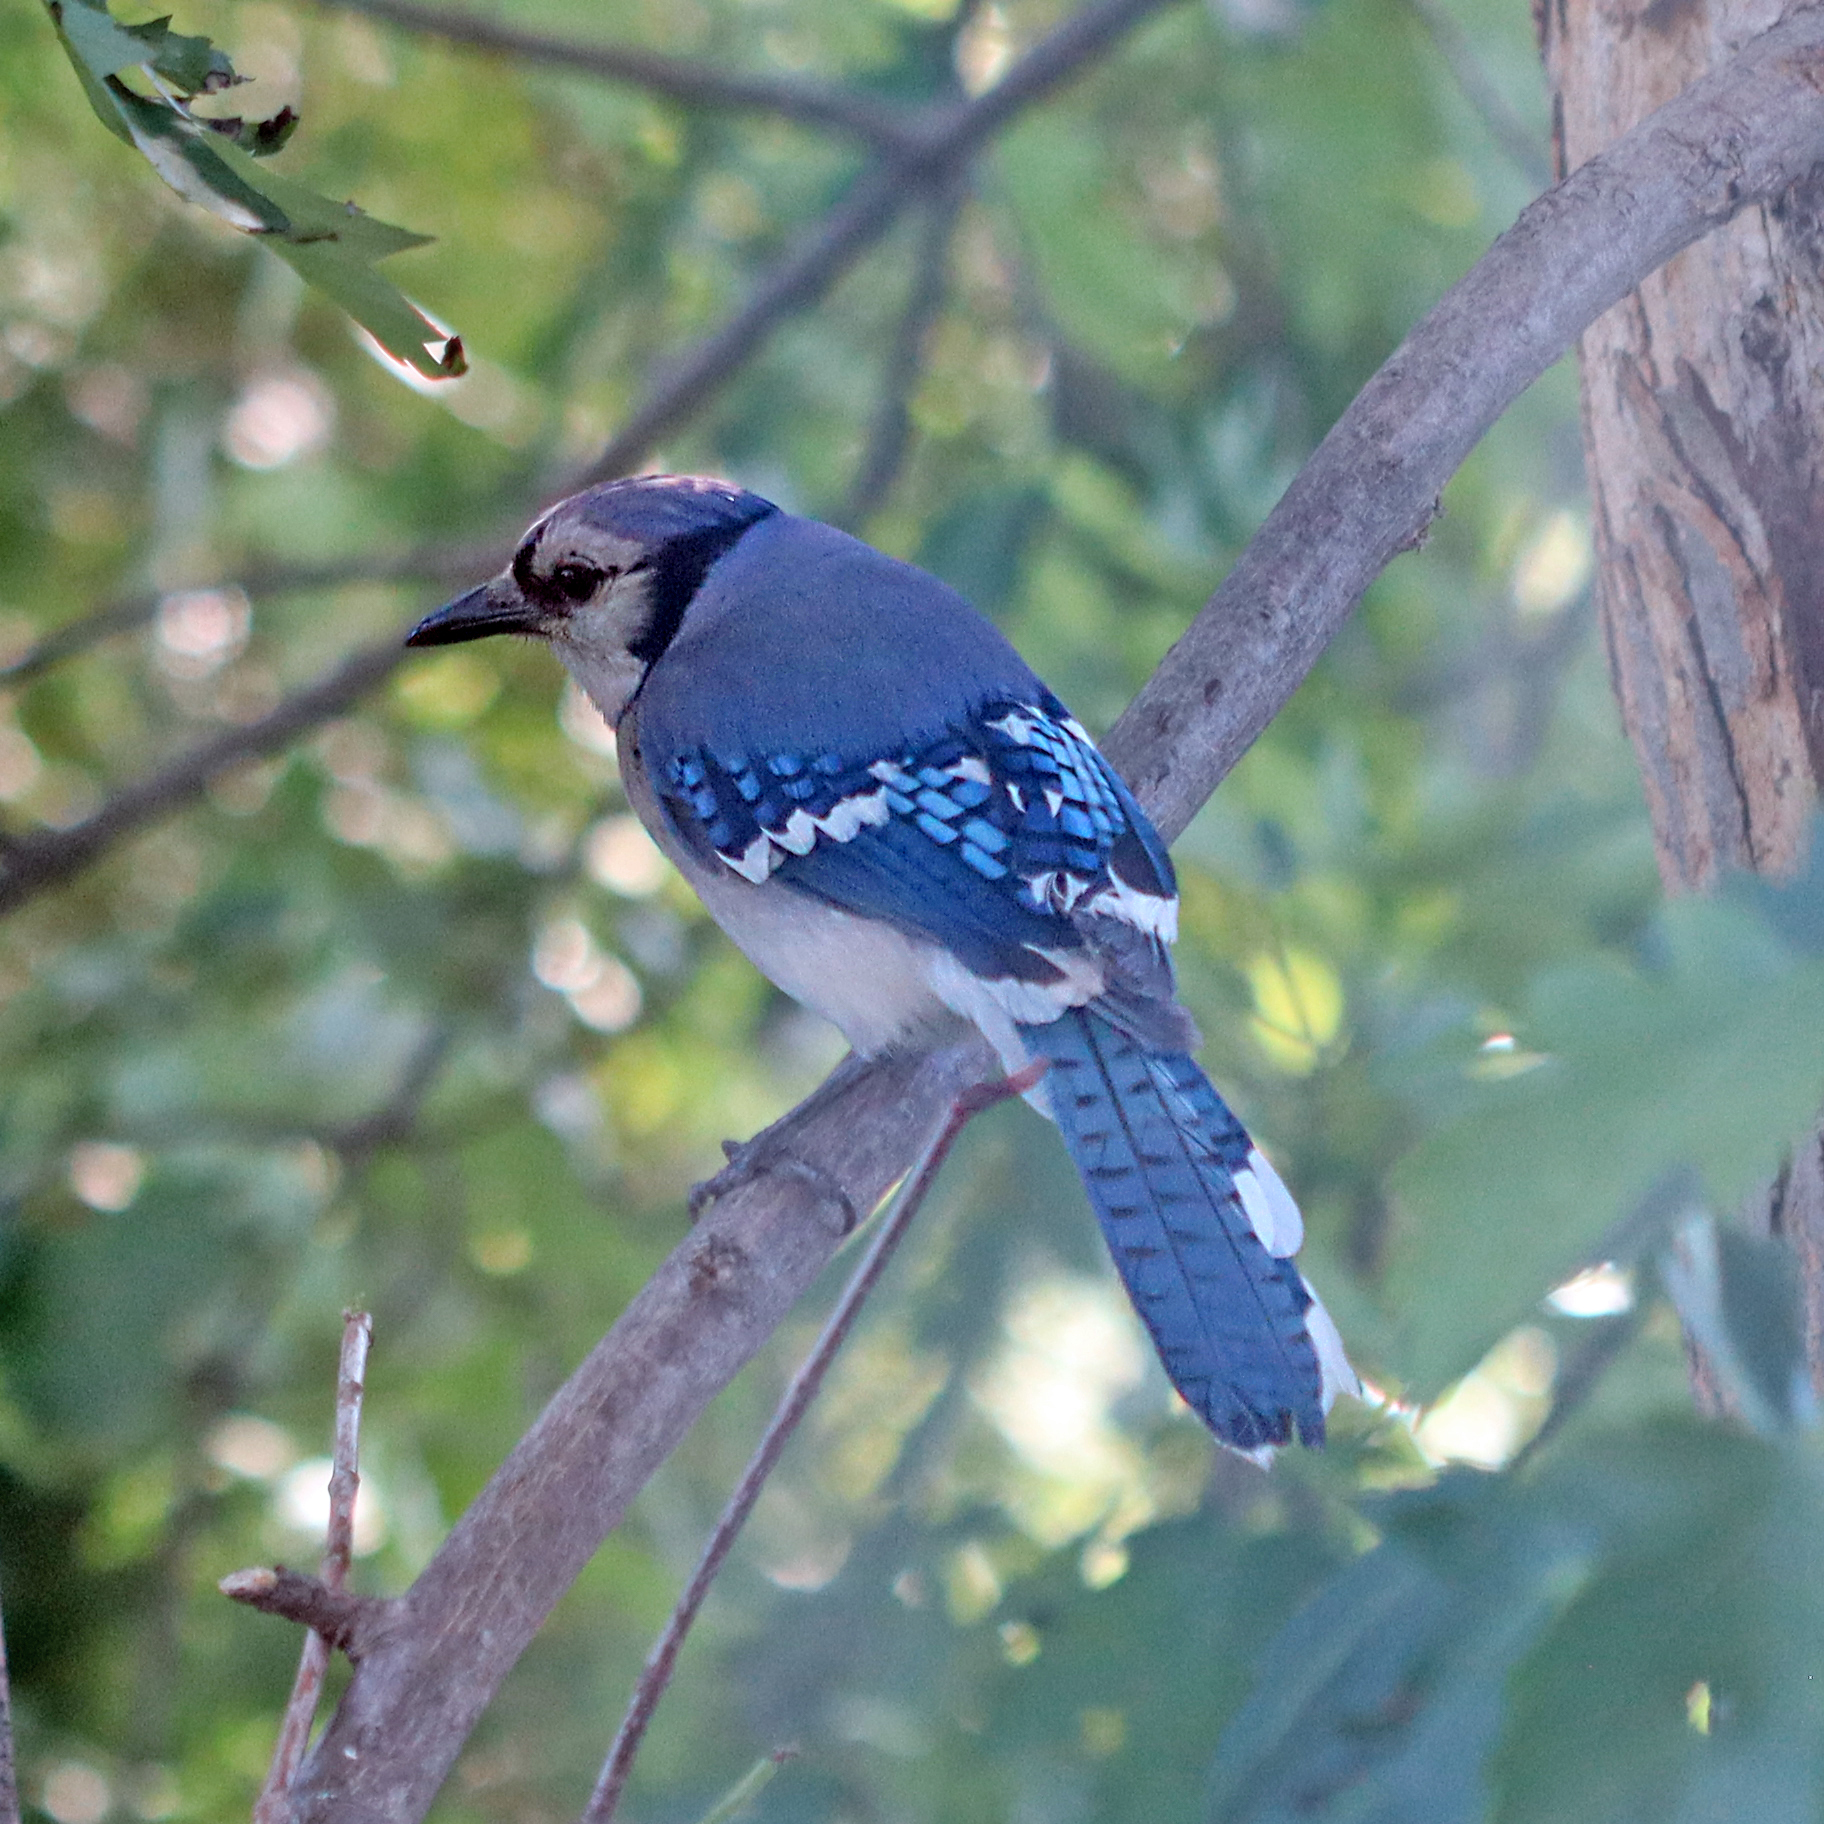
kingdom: Animalia
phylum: Chordata
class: Aves
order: Passeriformes
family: Corvidae
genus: Cyanocitta
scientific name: Cyanocitta cristata
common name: Blue jay
